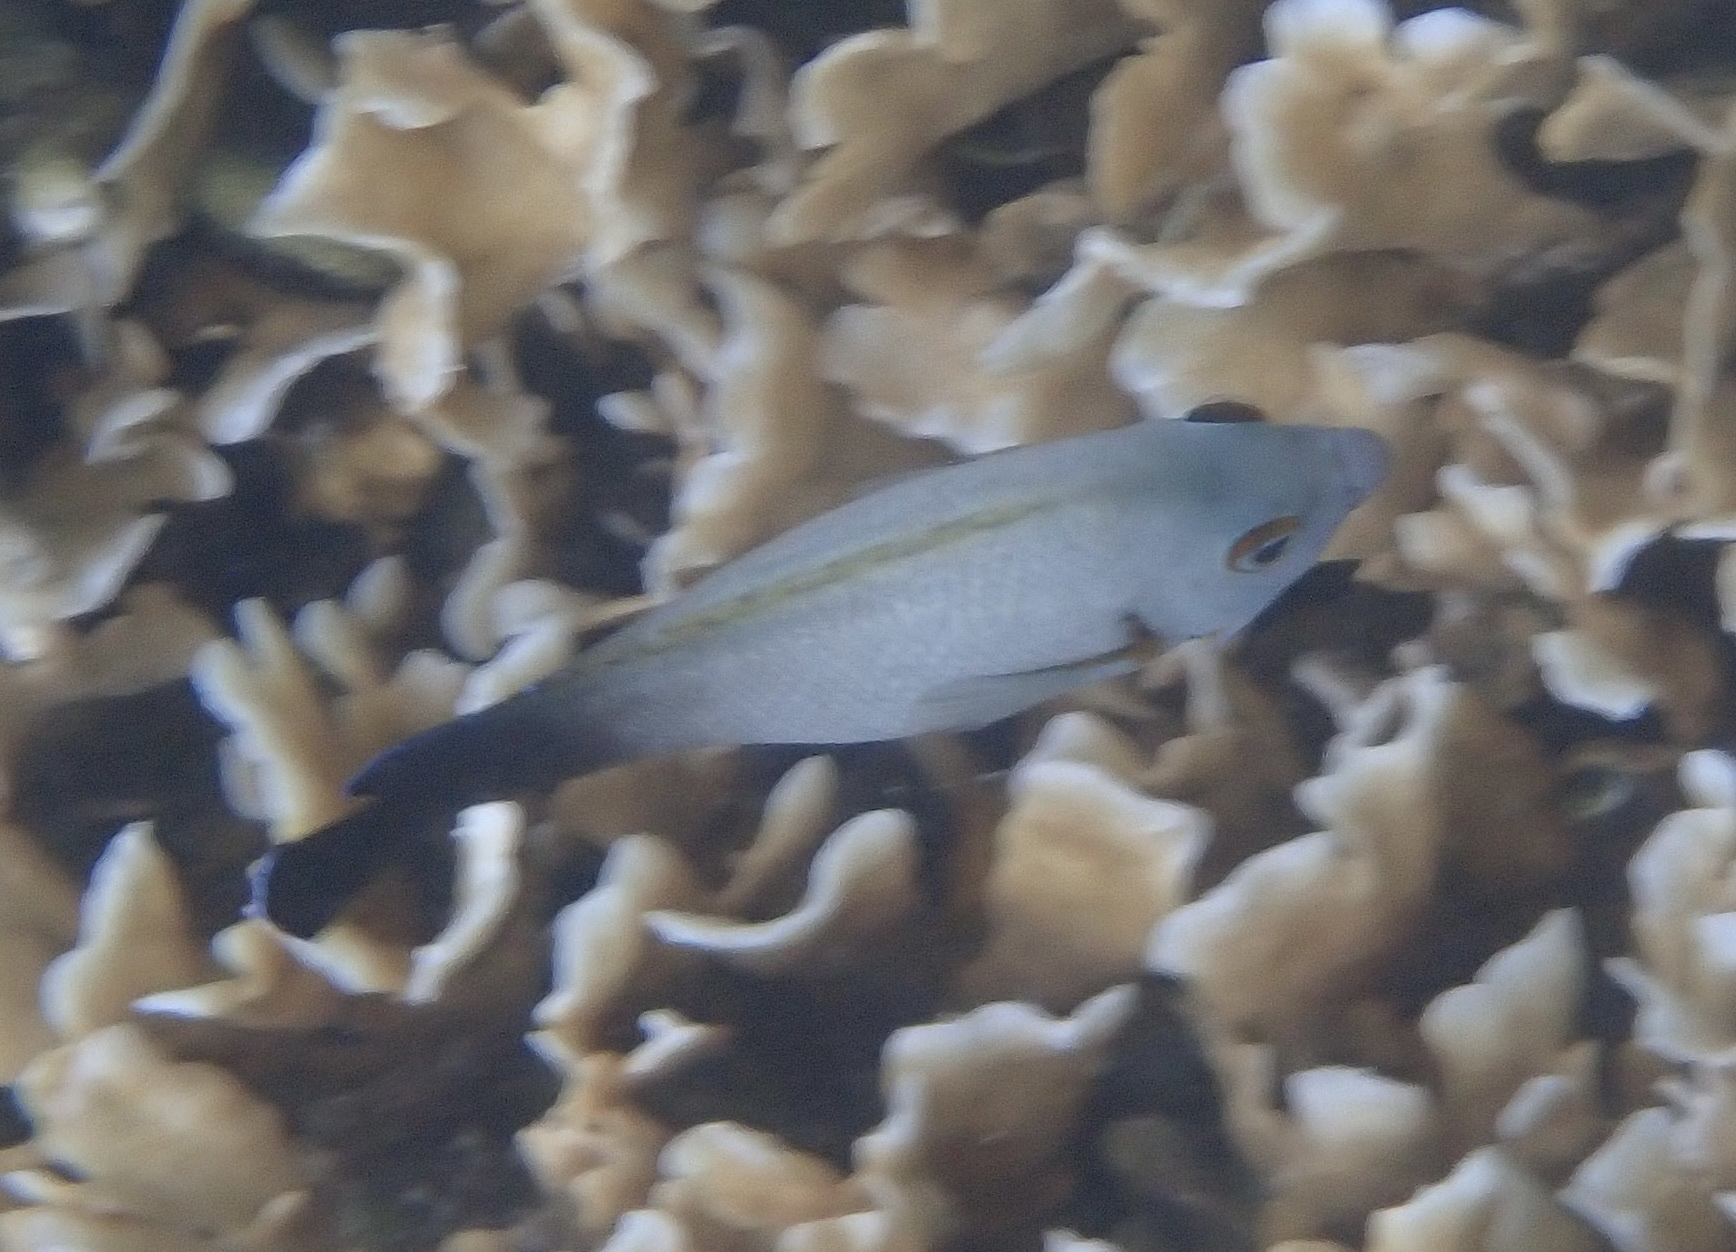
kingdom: Animalia
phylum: Chordata
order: Perciformes
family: Pomacanthidae
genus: Centropyge
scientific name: Centropyge vrolikii
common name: Pearlscale angelfish
